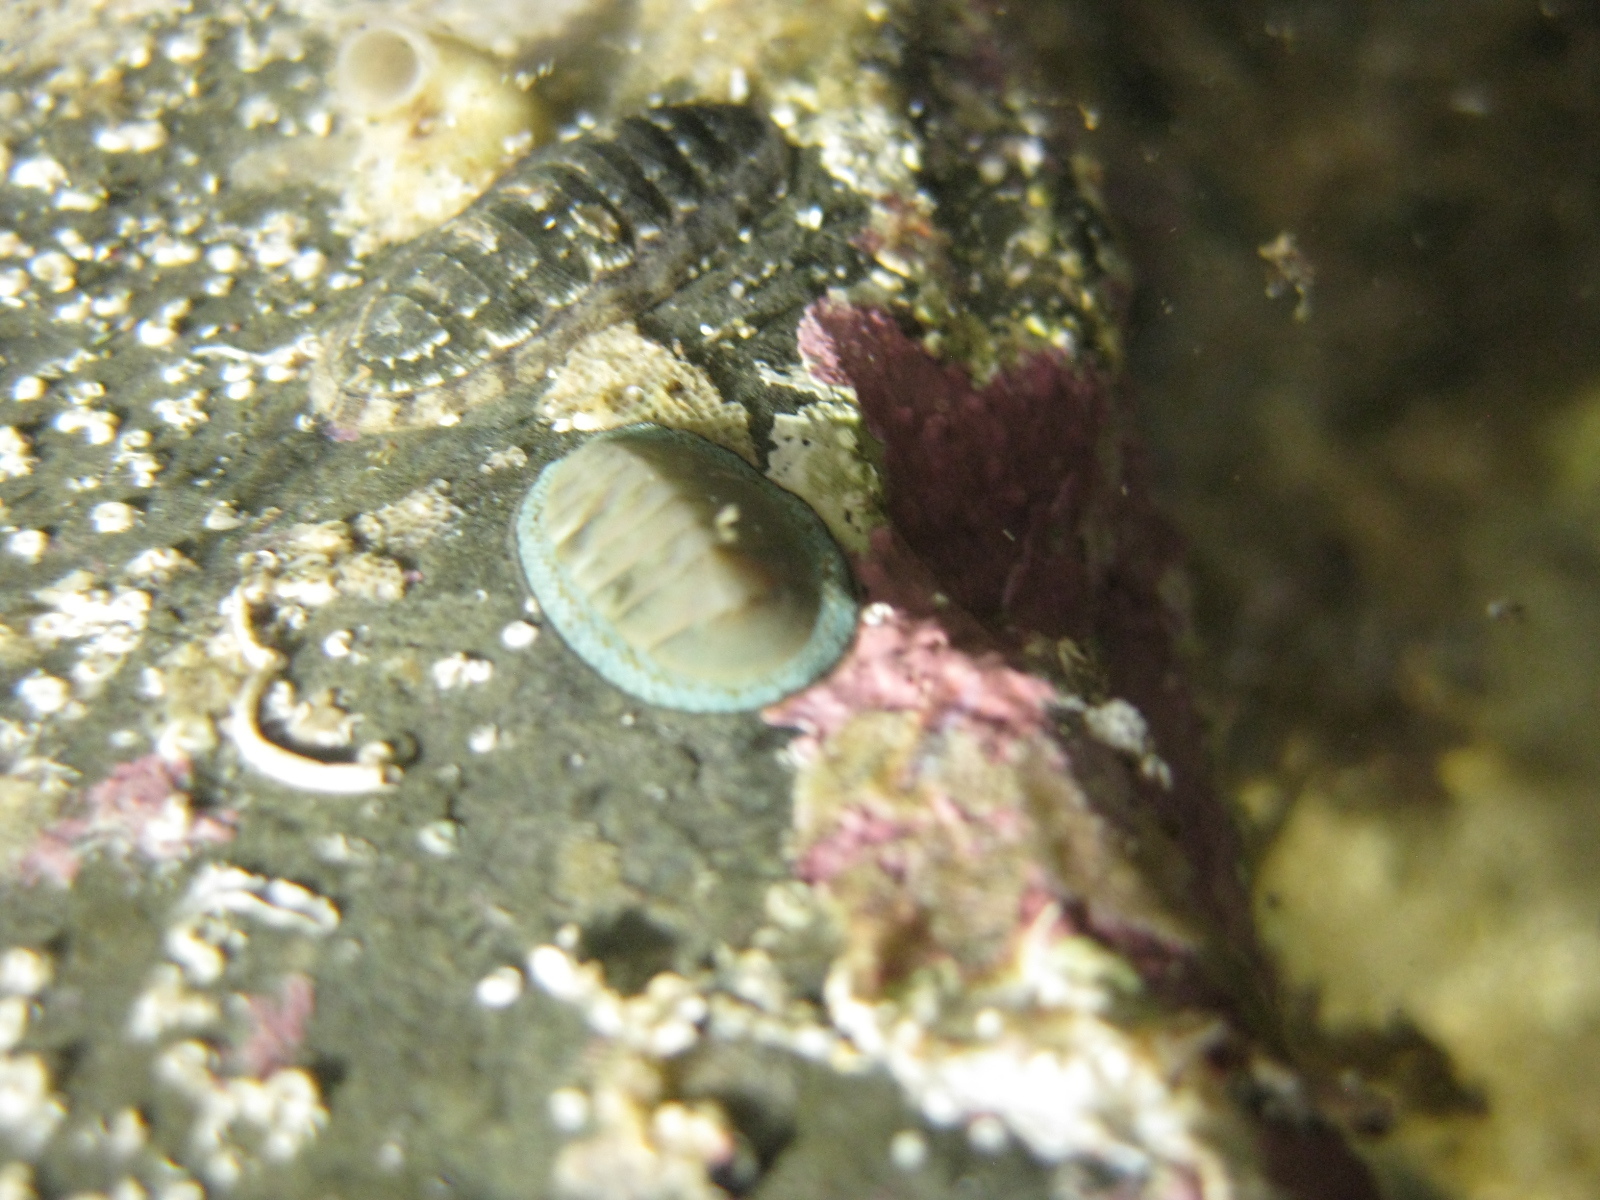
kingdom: Animalia
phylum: Mollusca
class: Polyplacophora
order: Chitonida
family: Chitonidae
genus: Chiton
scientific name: Chiton glaucus
